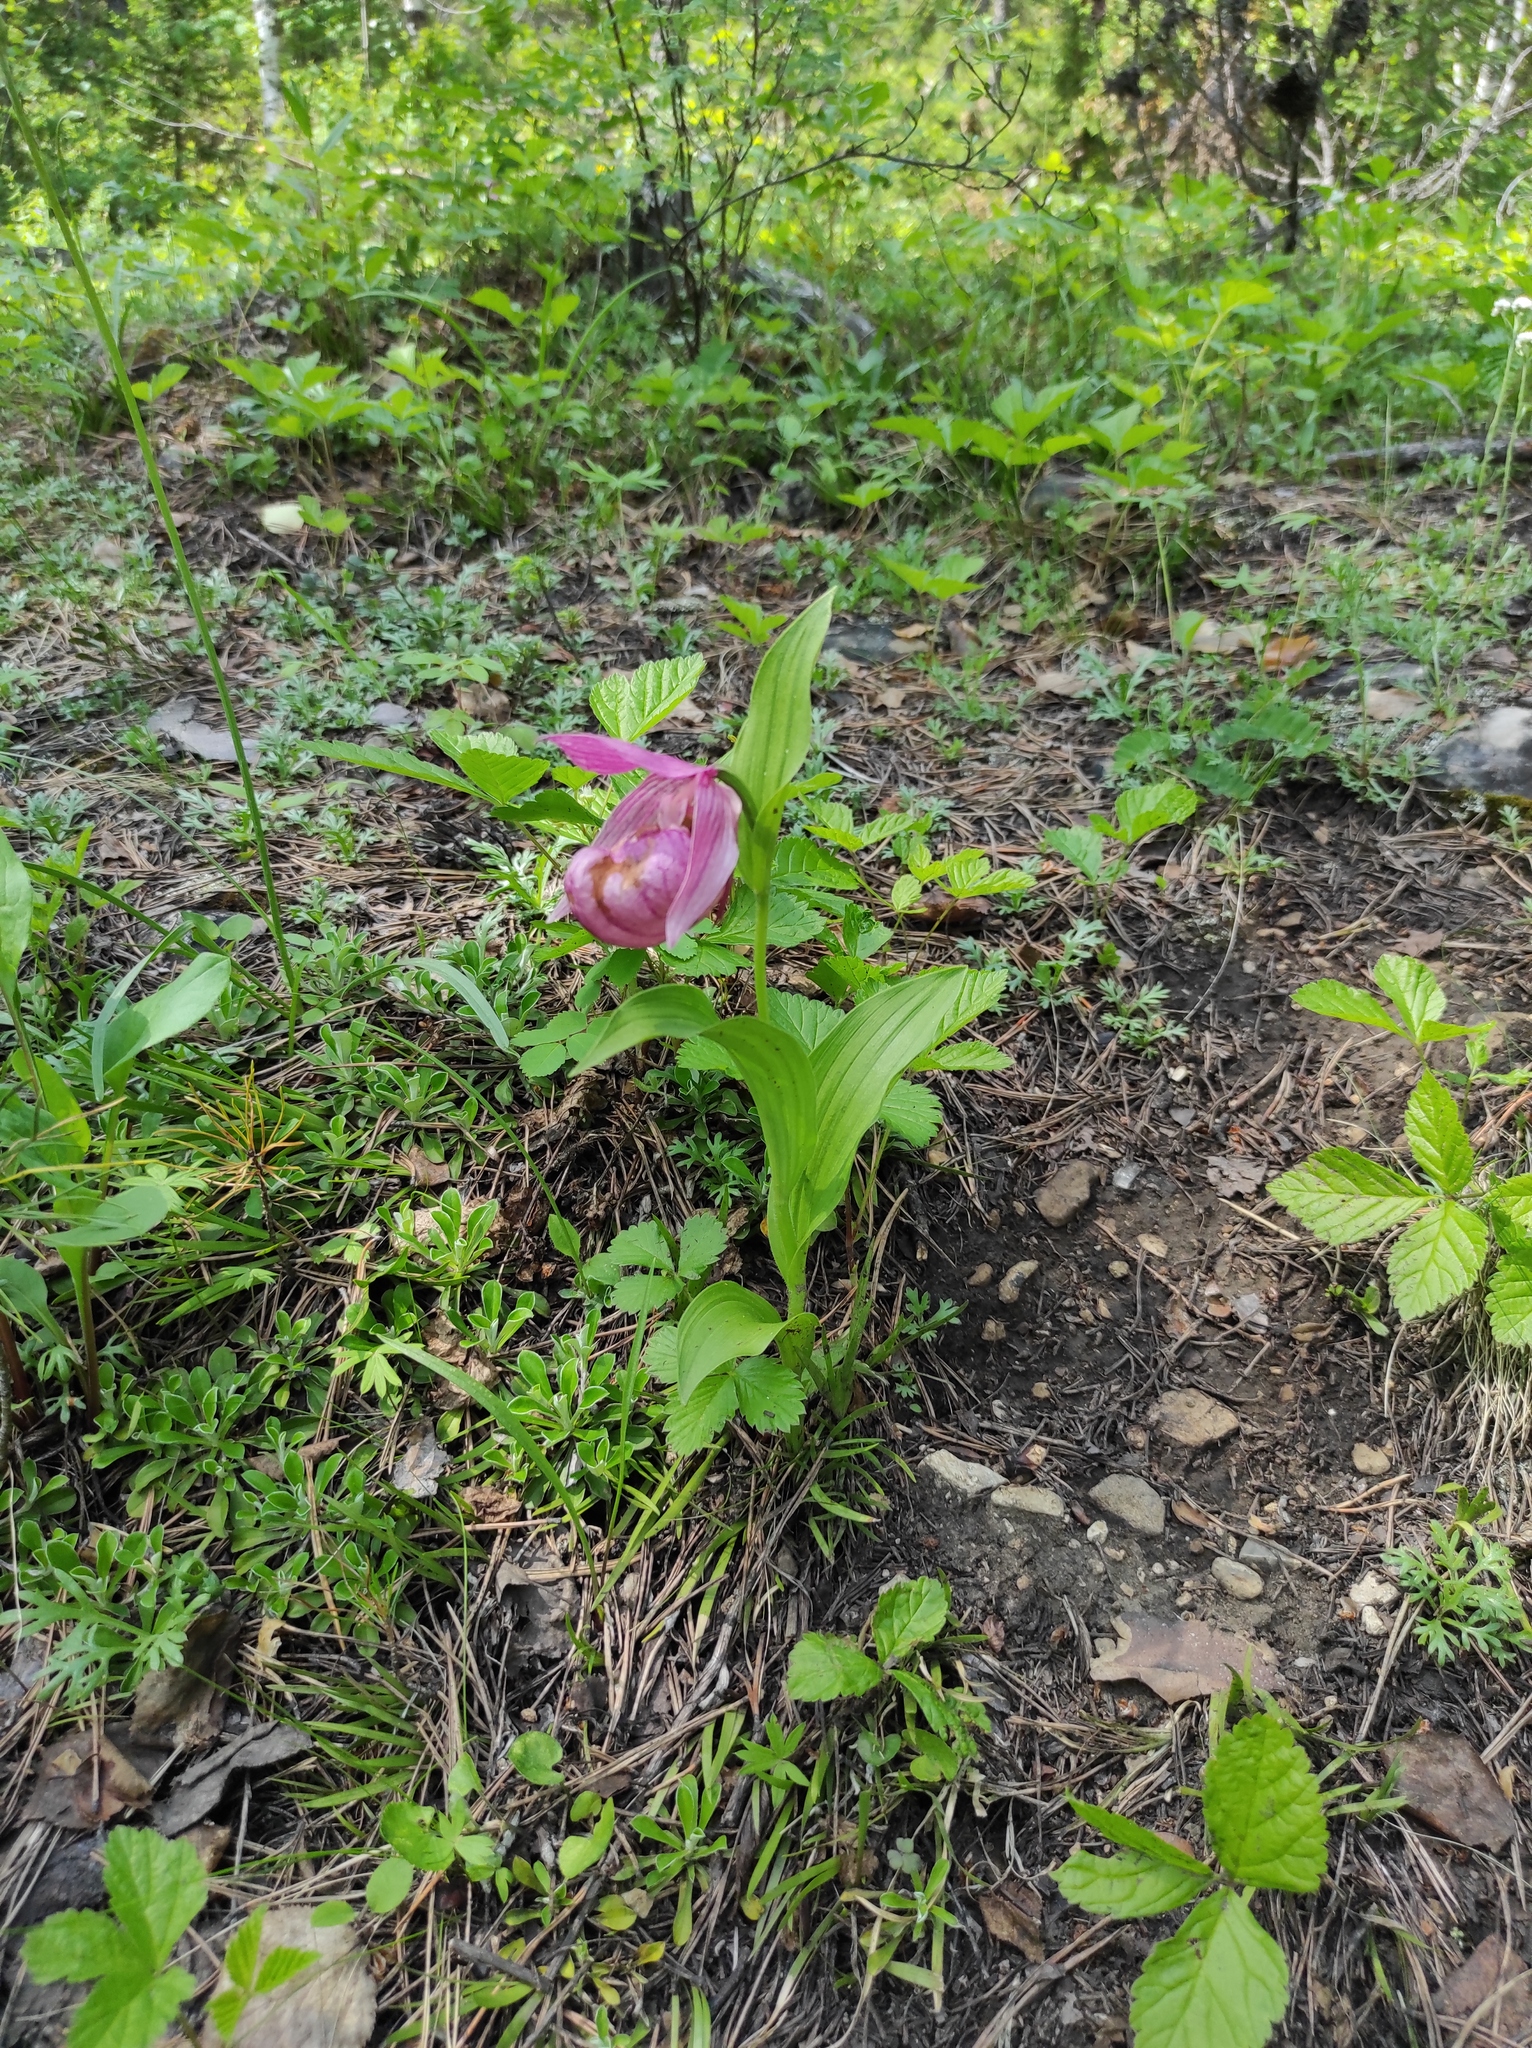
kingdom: Plantae
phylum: Tracheophyta
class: Liliopsida
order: Asparagales
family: Orchidaceae
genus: Cypripedium
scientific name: Cypripedium macranthos
